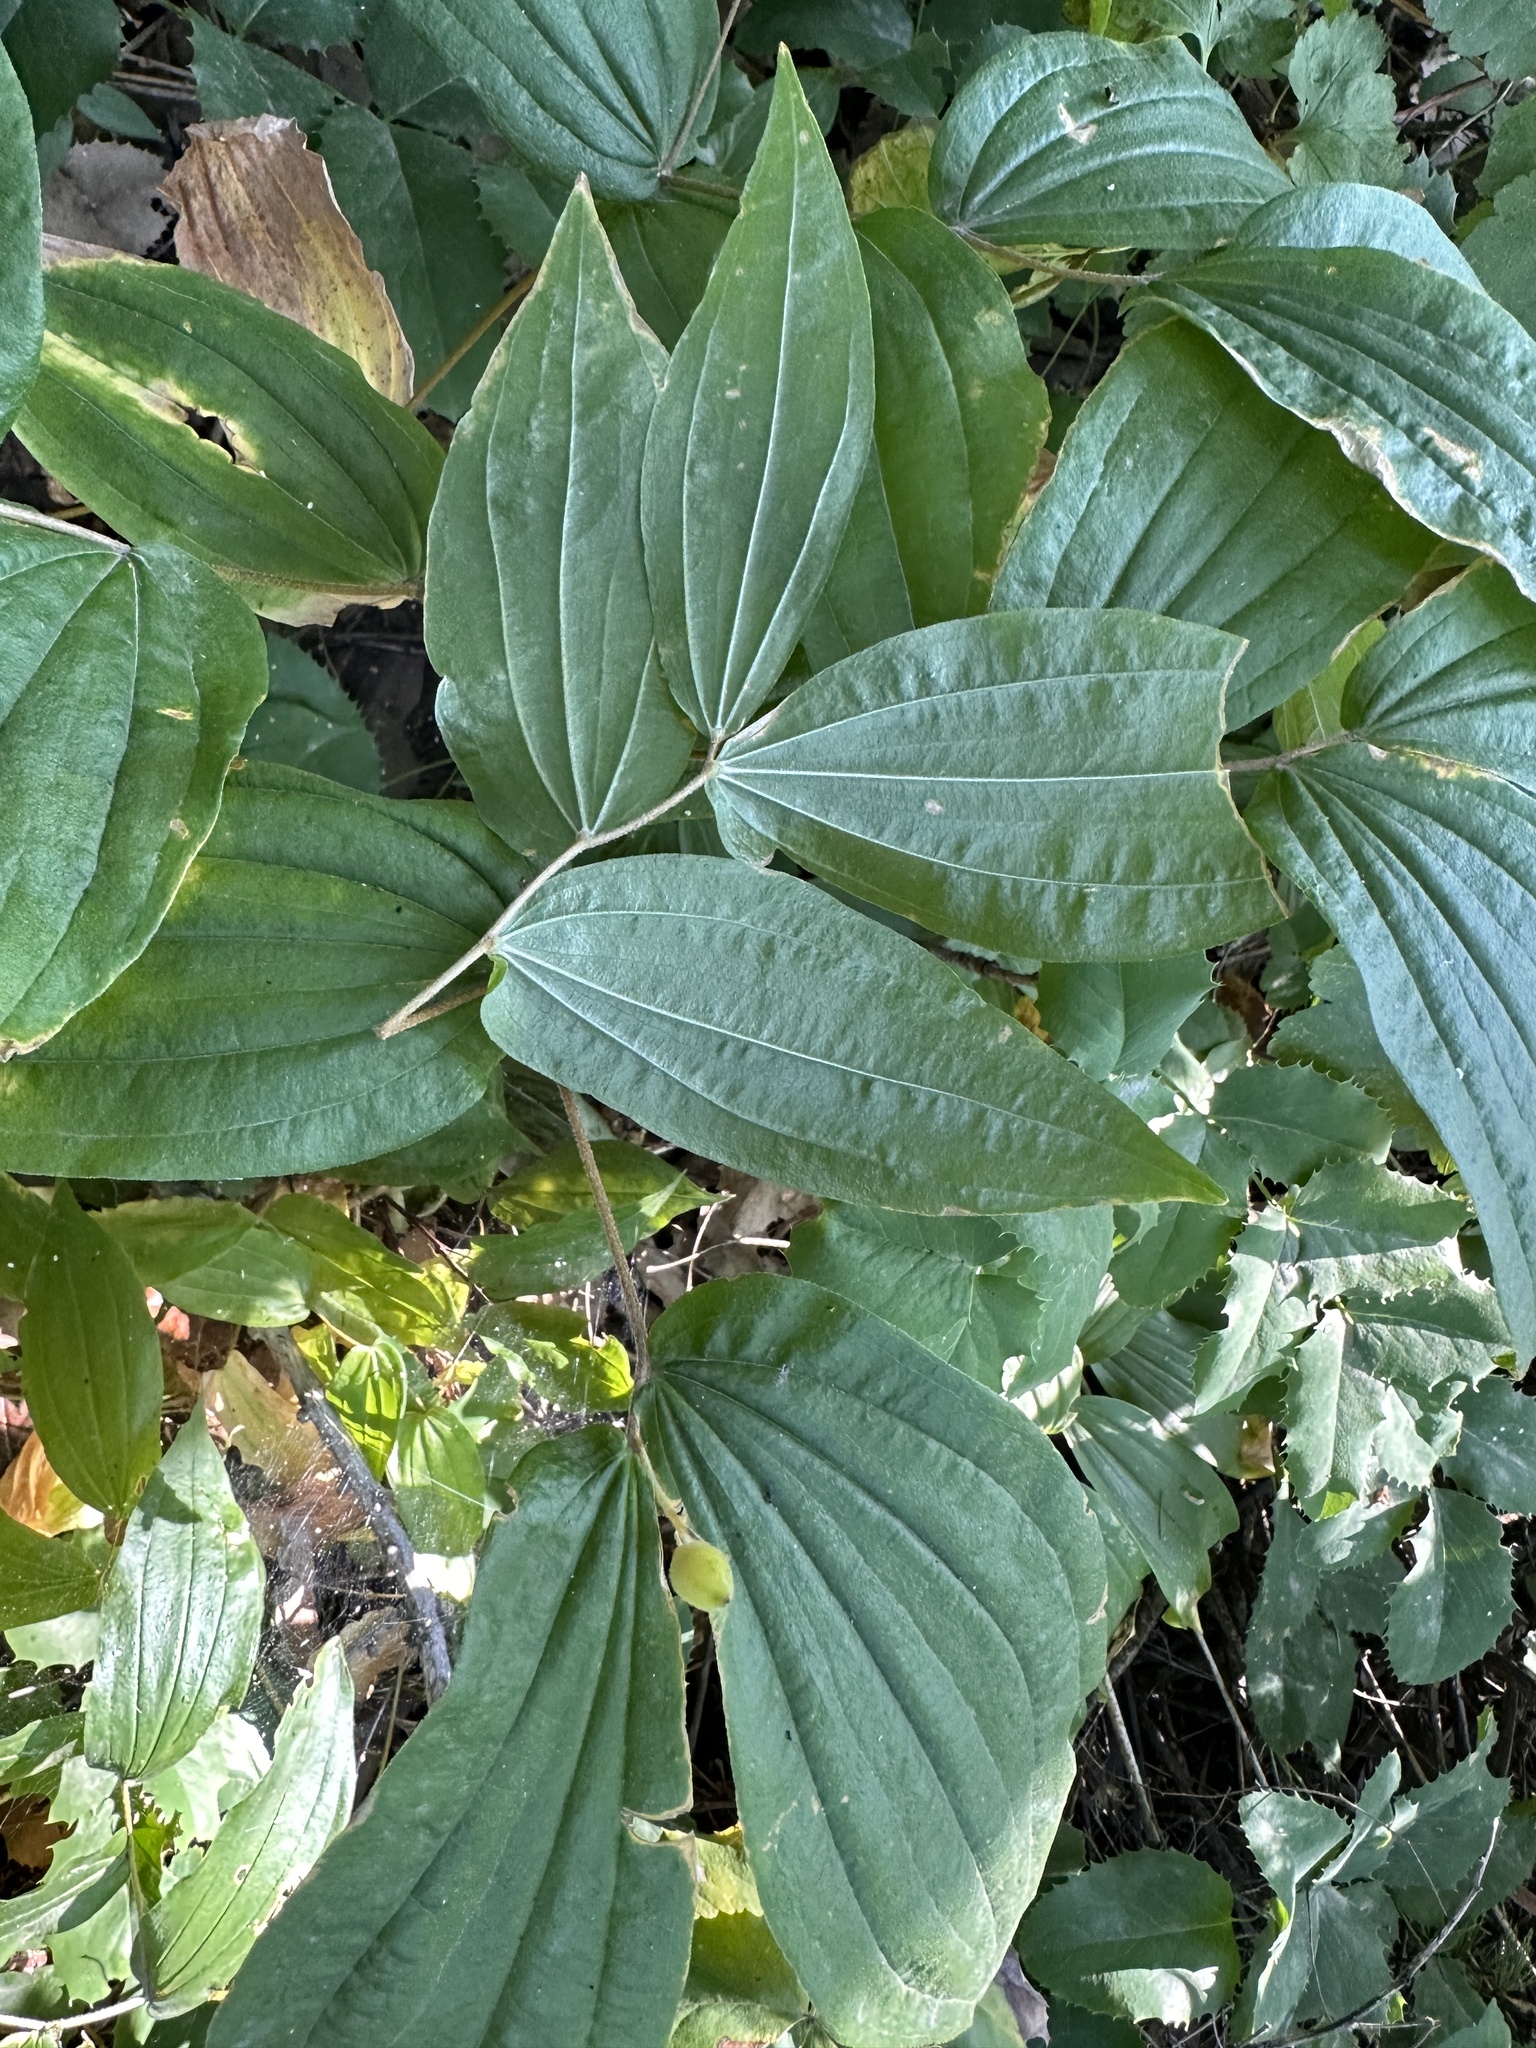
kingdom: Plantae
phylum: Tracheophyta
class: Liliopsida
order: Liliales
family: Liliaceae
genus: Prosartes
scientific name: Prosartes hookeri
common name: Fairy-bells
